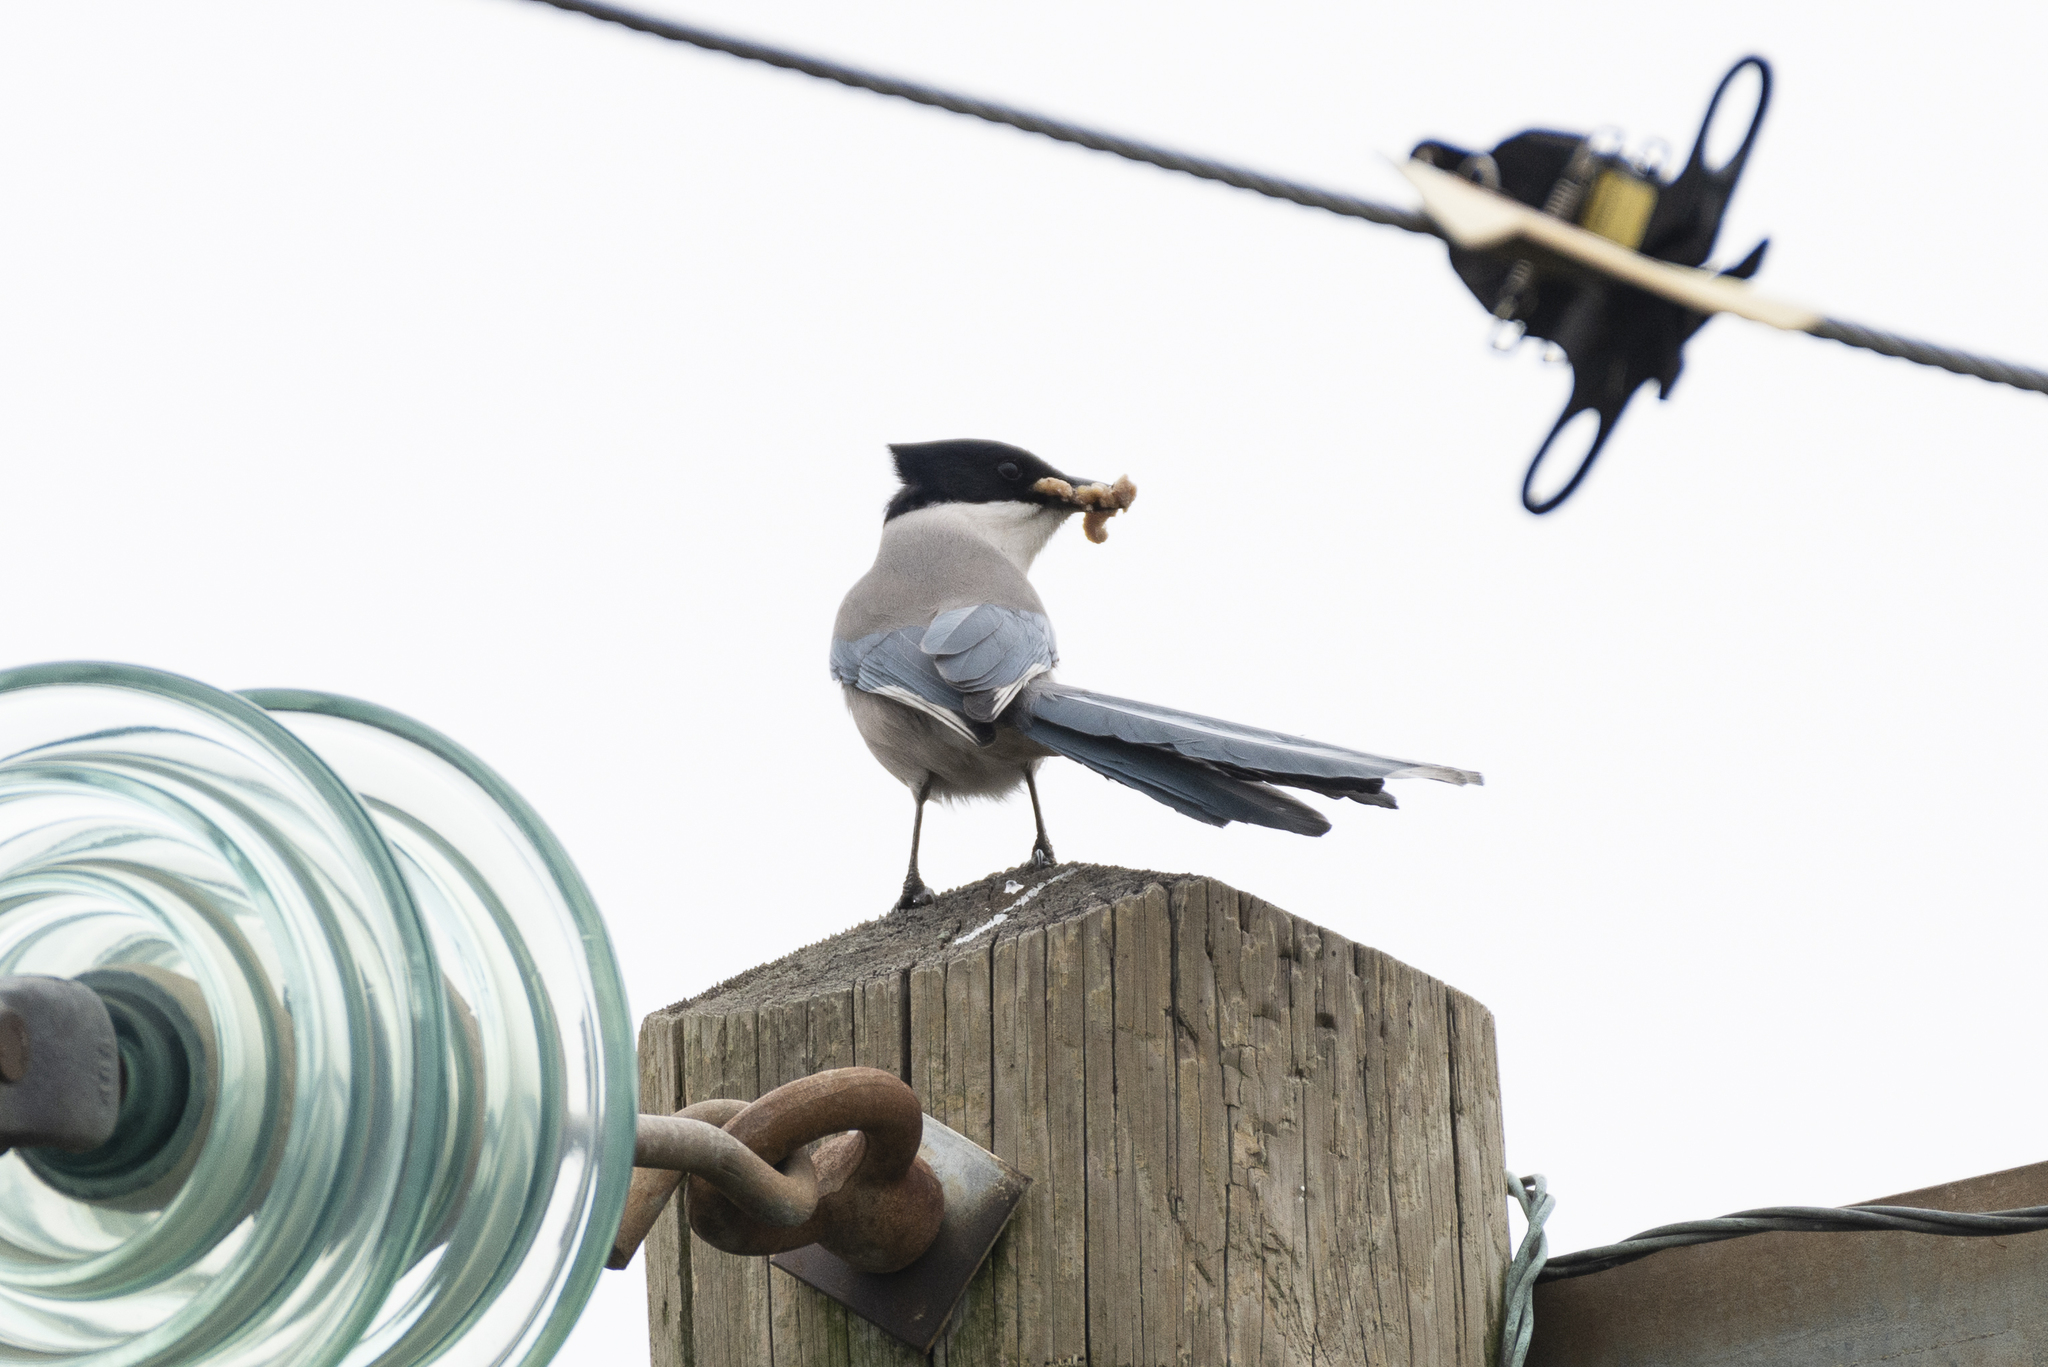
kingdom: Animalia
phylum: Chordata
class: Aves
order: Passeriformes
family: Corvidae
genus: Cyanopica
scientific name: Cyanopica cyanus
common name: Azure-winged magpie
